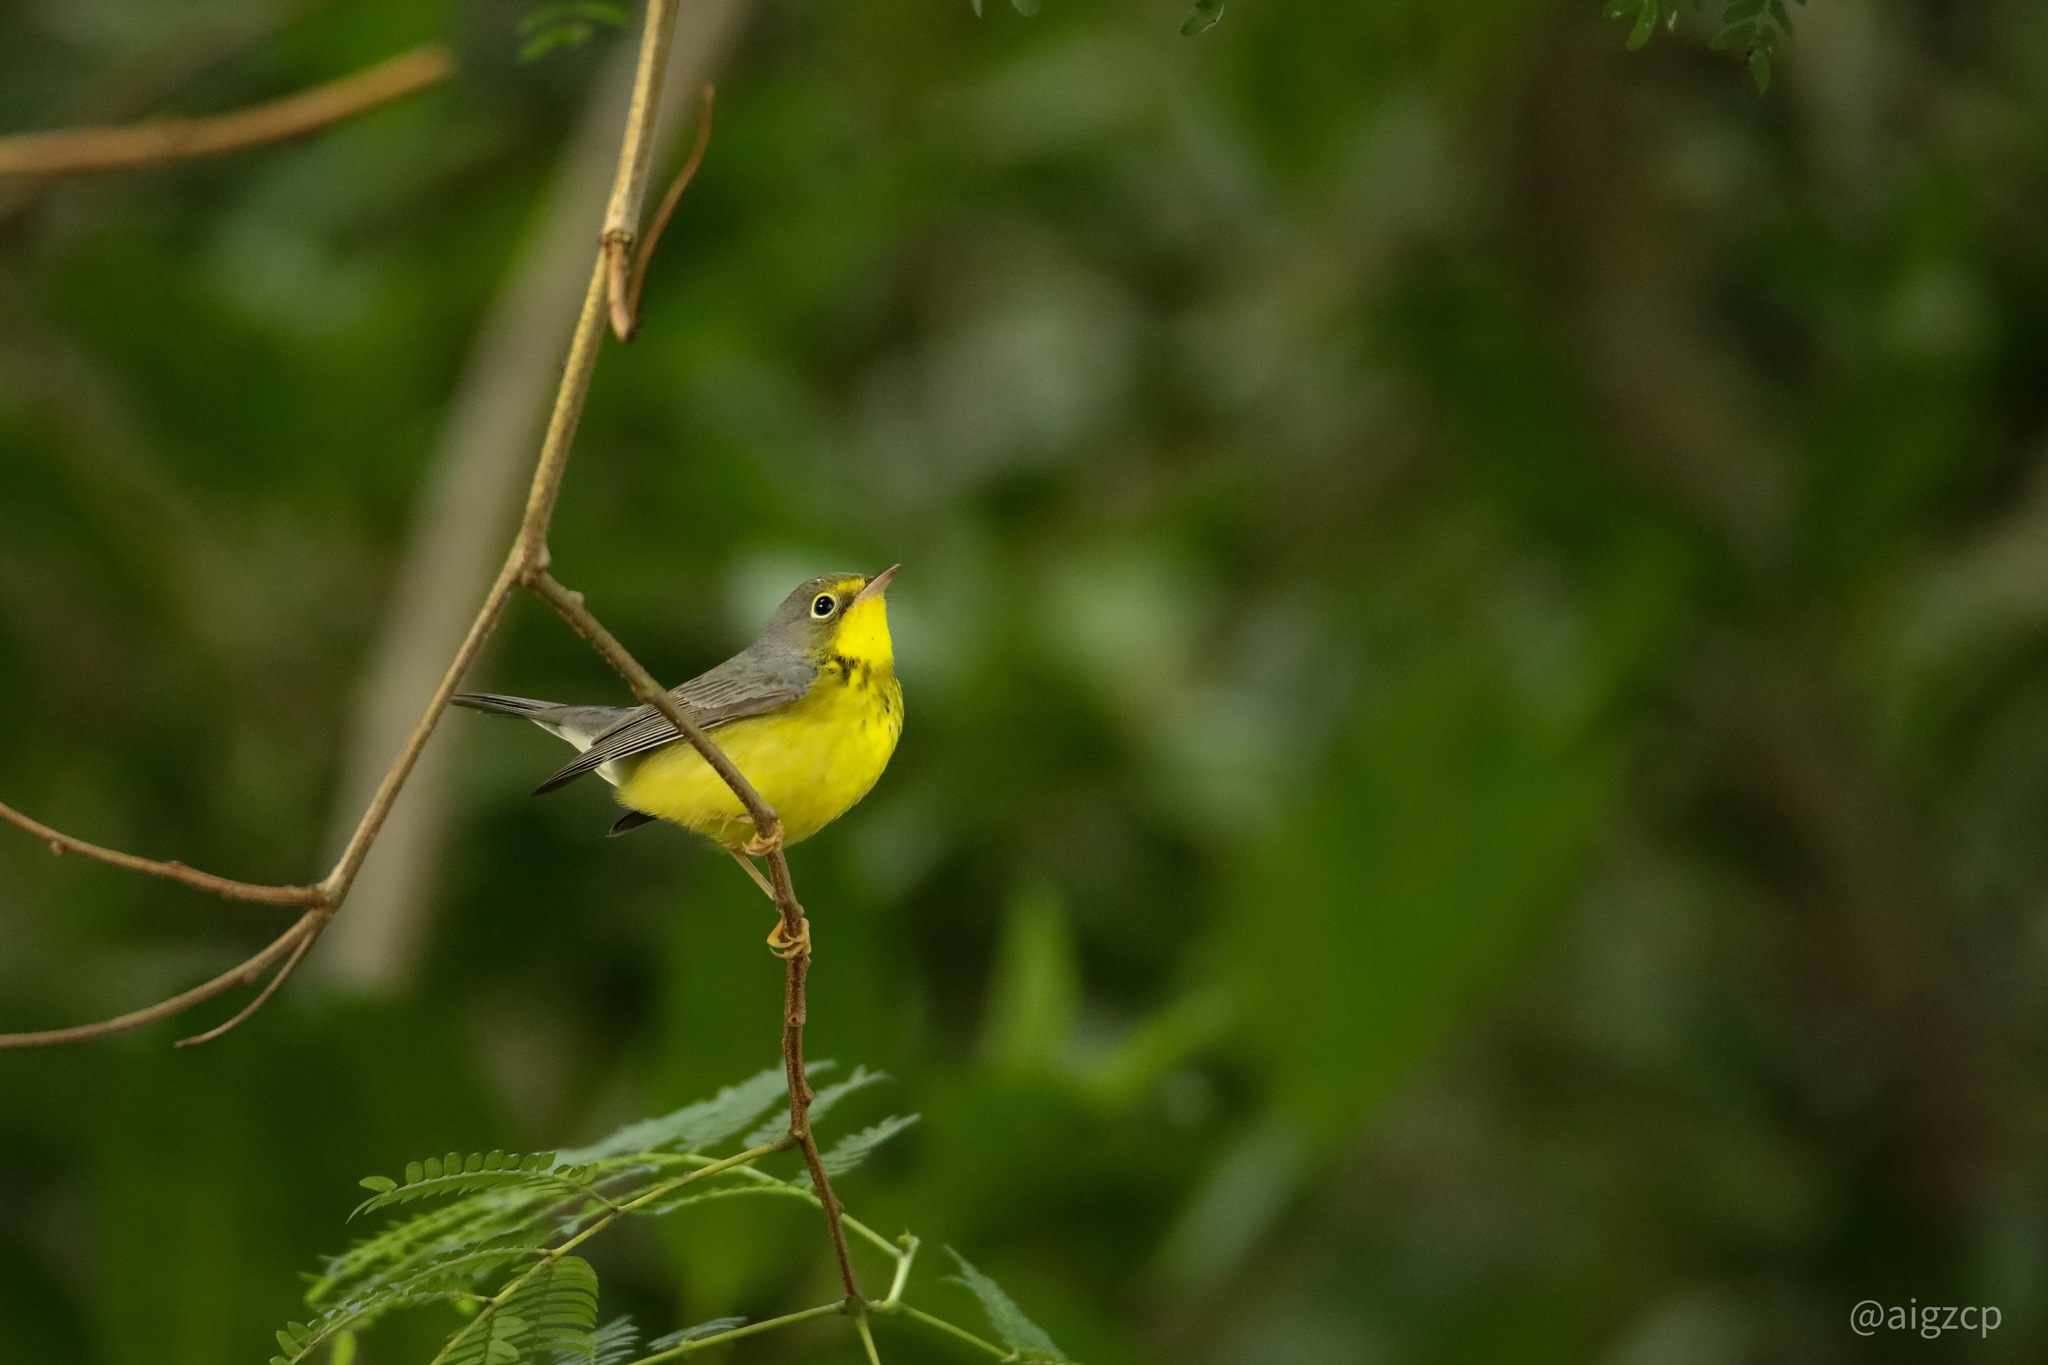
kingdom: Animalia
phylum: Chordata
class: Aves
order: Passeriformes
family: Parulidae
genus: Cardellina
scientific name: Cardellina canadensis
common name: Canada warbler
